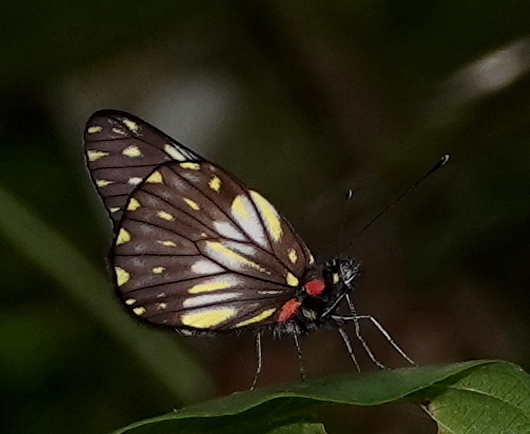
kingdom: Animalia
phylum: Arthropoda
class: Insecta
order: Lepidoptera
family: Pieridae
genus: Catasticta
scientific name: Catasticta prioneris
